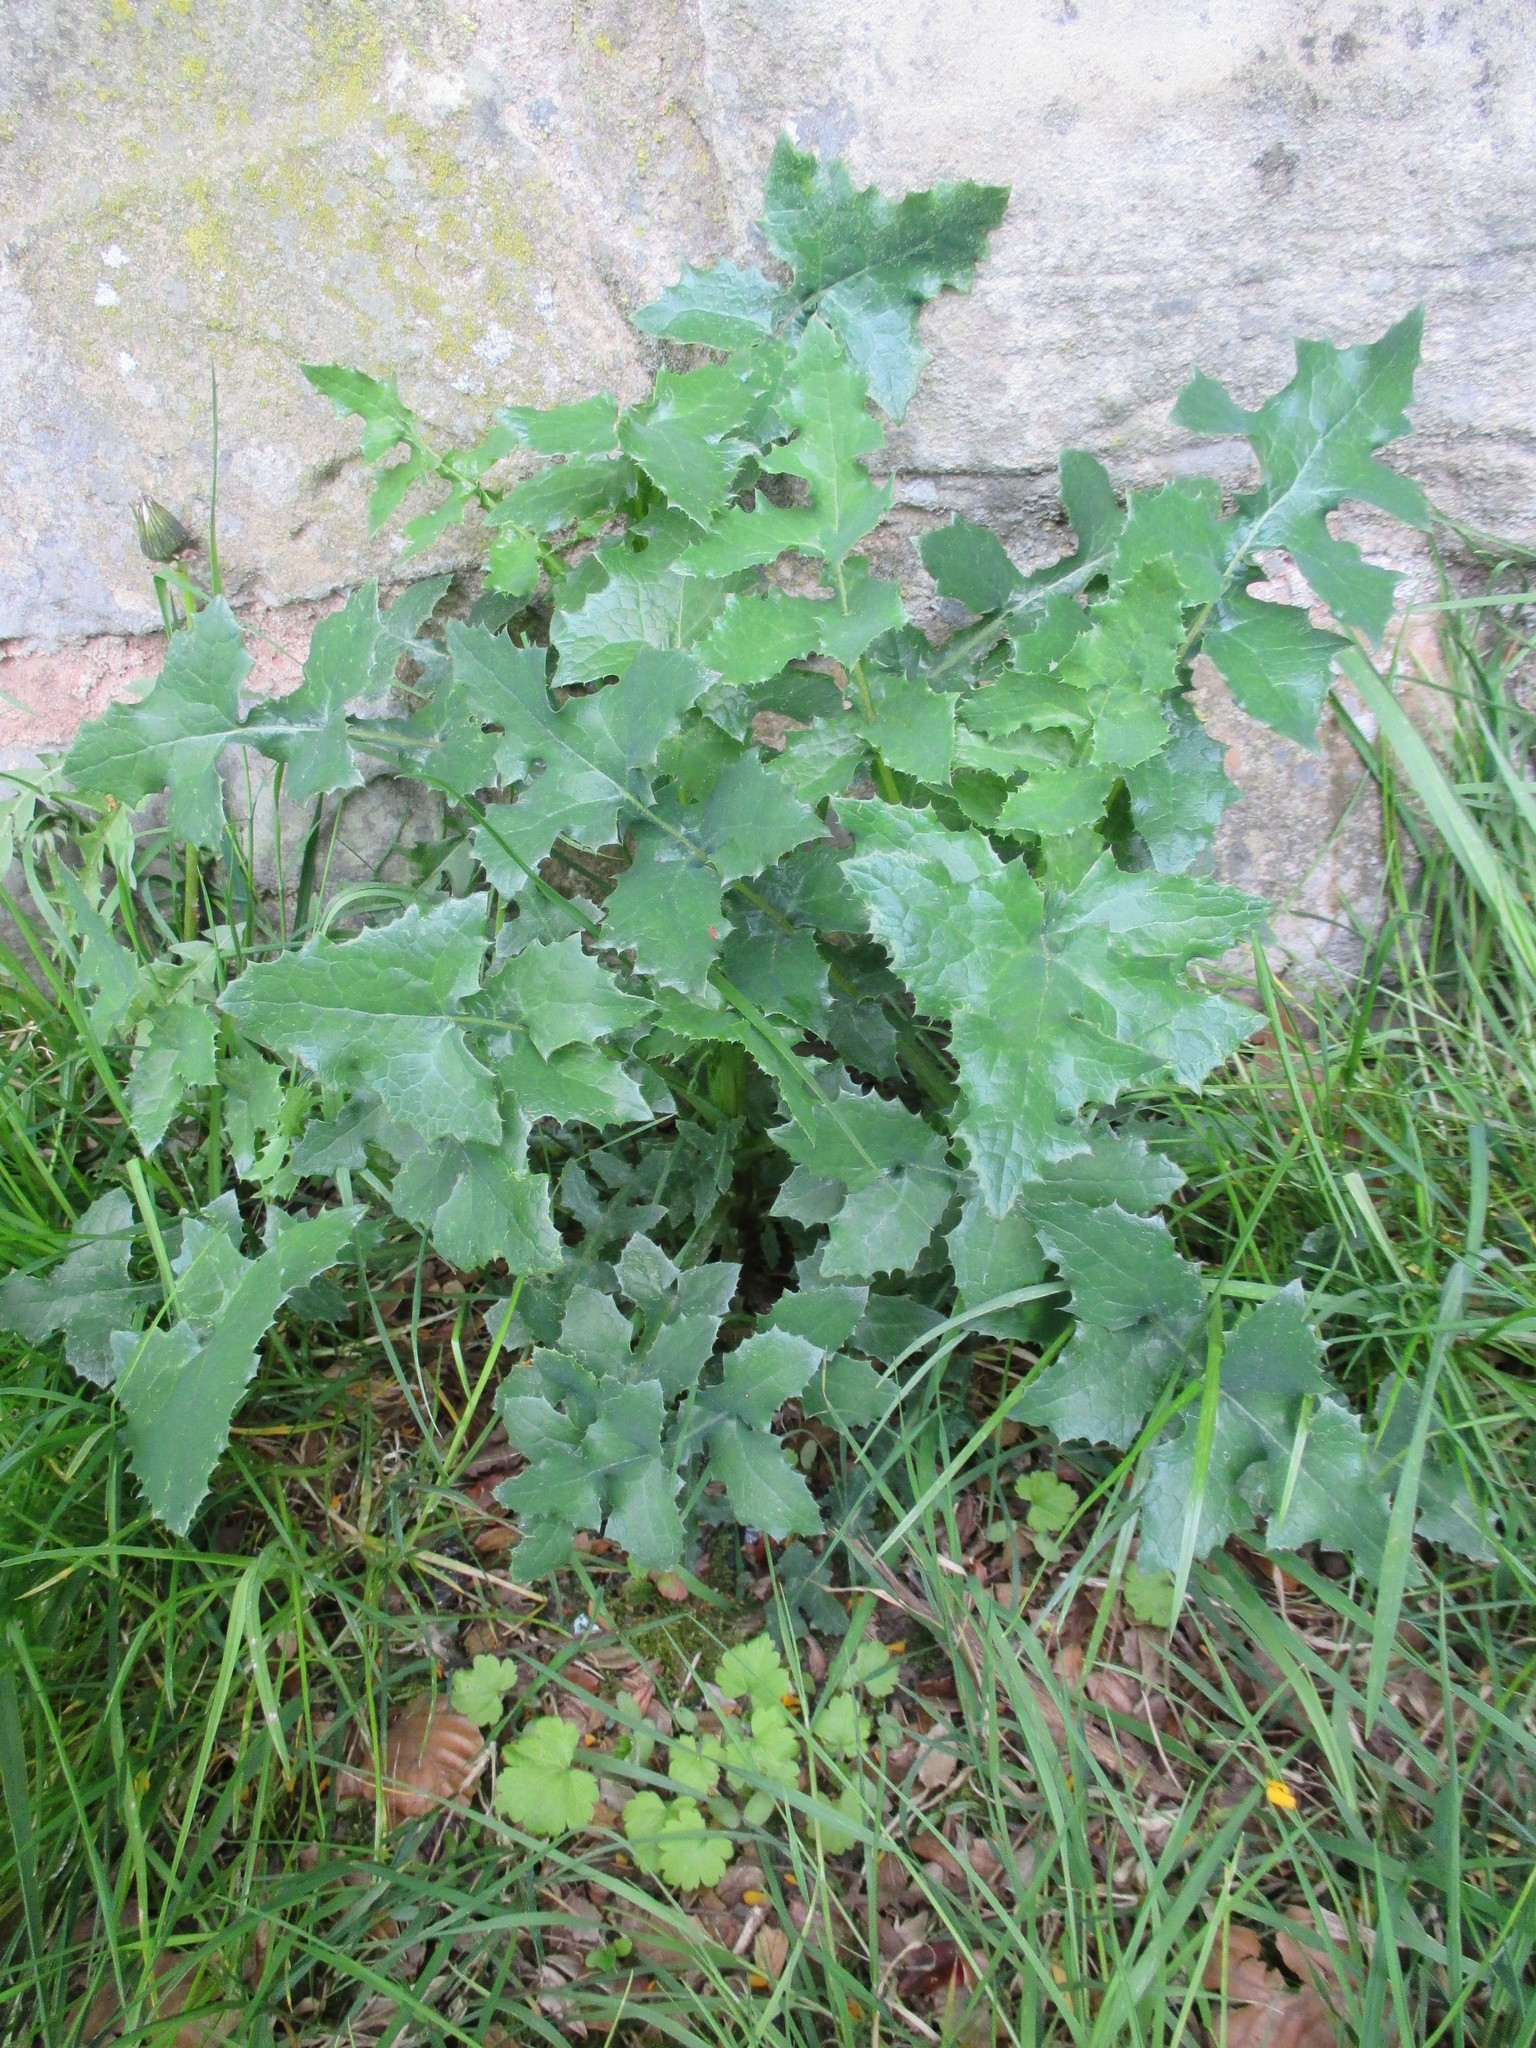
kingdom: Plantae
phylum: Tracheophyta
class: Magnoliopsida
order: Asterales
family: Asteraceae
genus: Sonchus
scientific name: Sonchus oleraceus
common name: Common sowthistle
